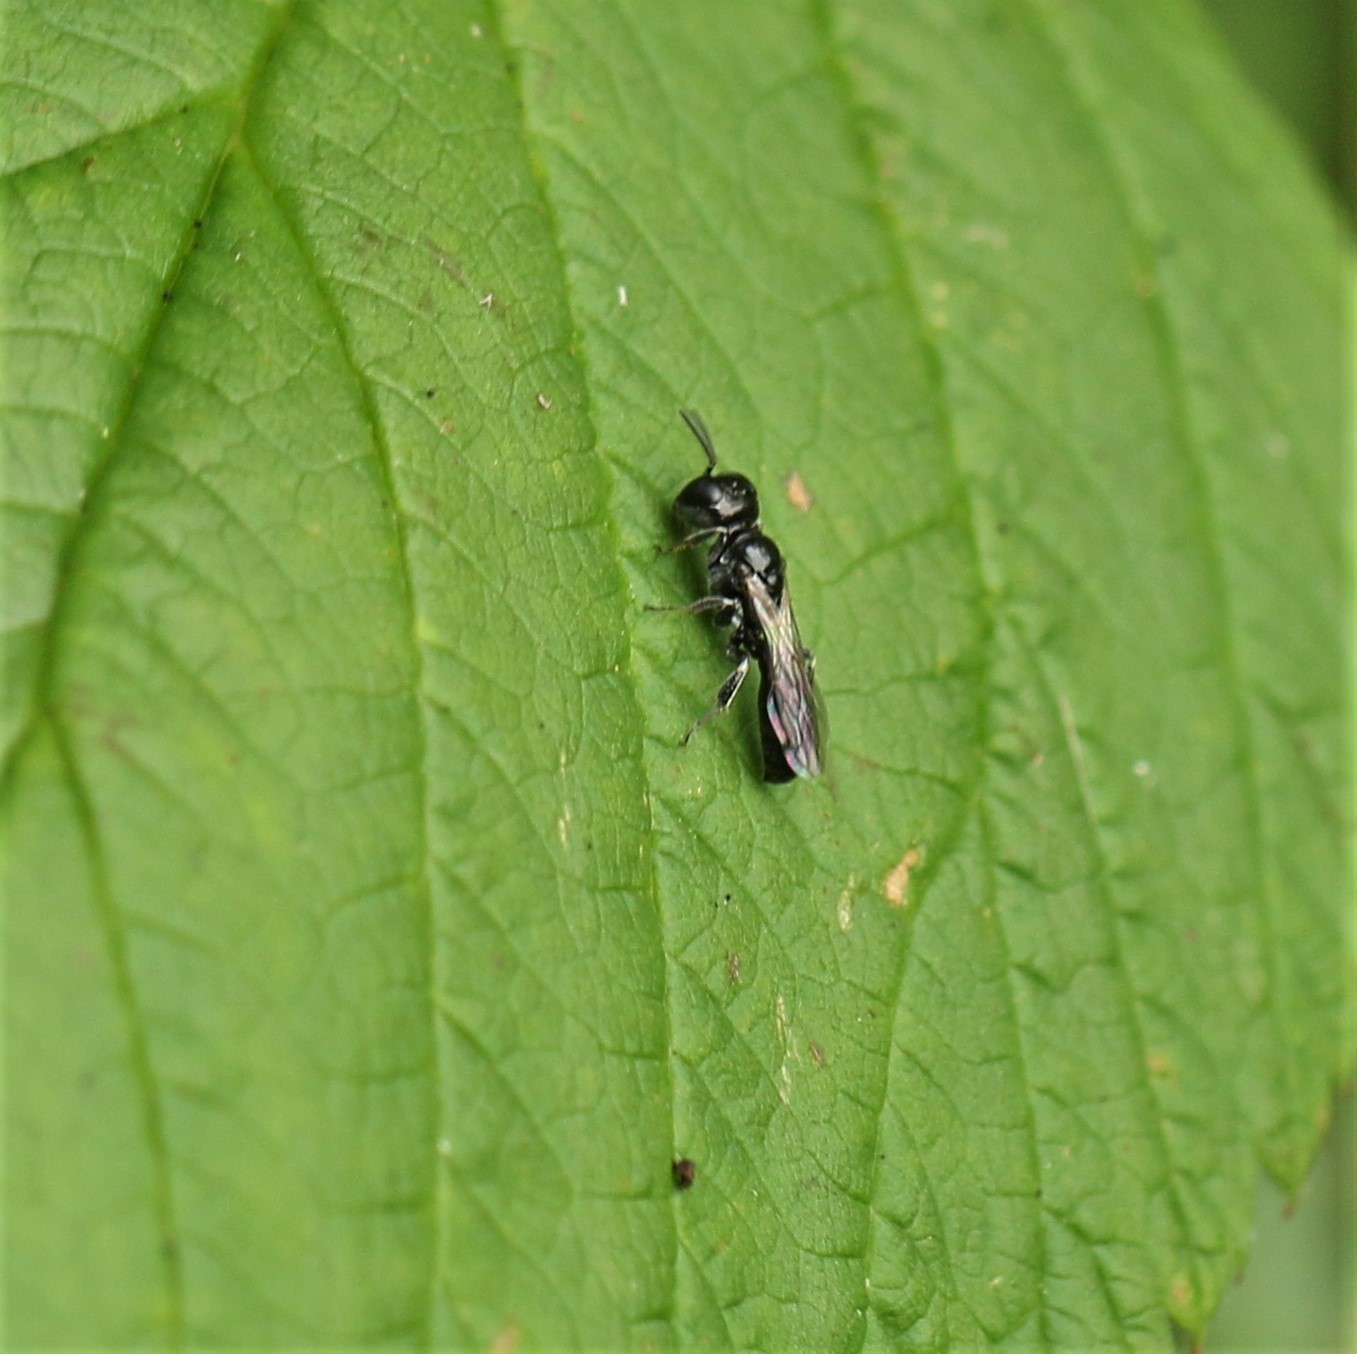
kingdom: Animalia
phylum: Arthropoda
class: Insecta
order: Hymenoptera
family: Crabronidae
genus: Crossocerus
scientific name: Crossocerus annulipes
